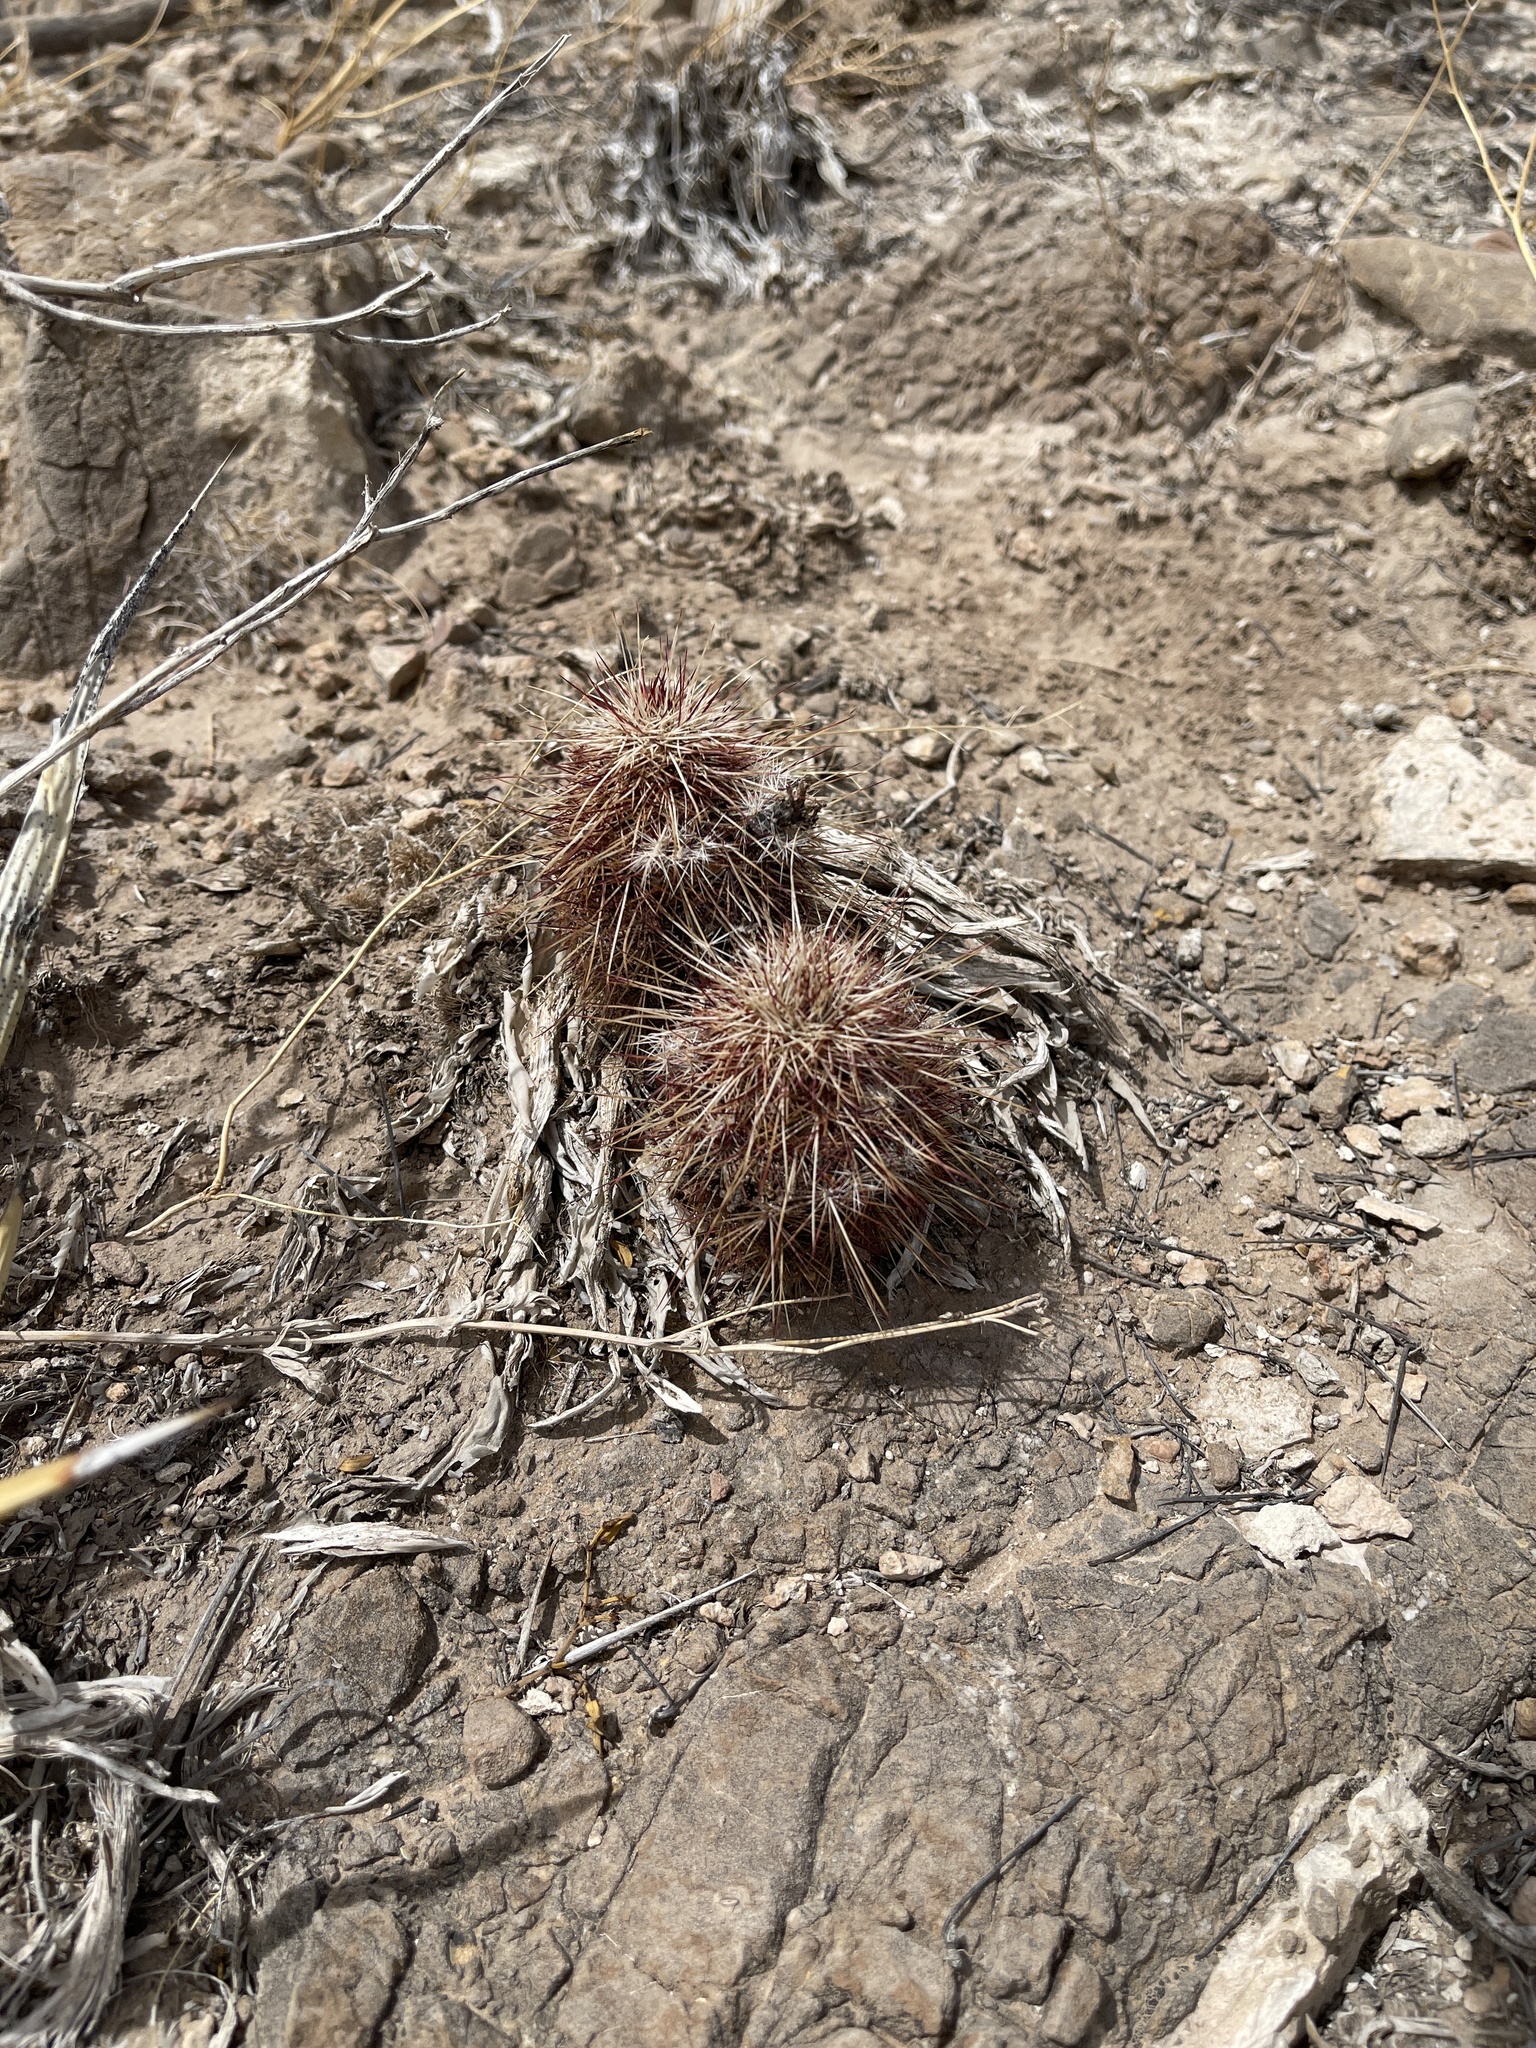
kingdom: Plantae
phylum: Tracheophyta
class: Magnoliopsida
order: Caryophyllales
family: Cactaceae
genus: Echinocereus
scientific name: Echinocereus viridiflorus
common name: Nylon hedgehog cactus
